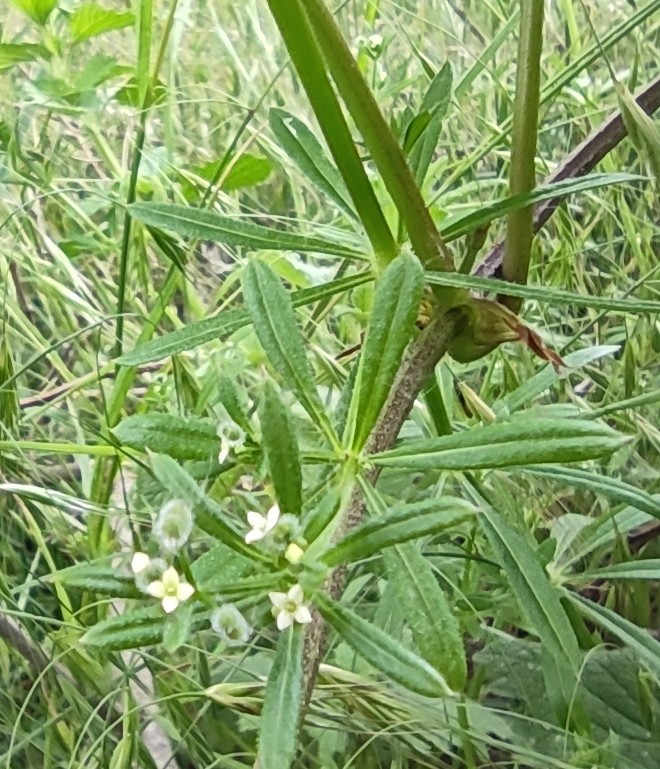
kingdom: Plantae
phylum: Tracheophyta
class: Magnoliopsida
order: Gentianales
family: Rubiaceae
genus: Galium
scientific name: Galium aparine
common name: Cleavers
